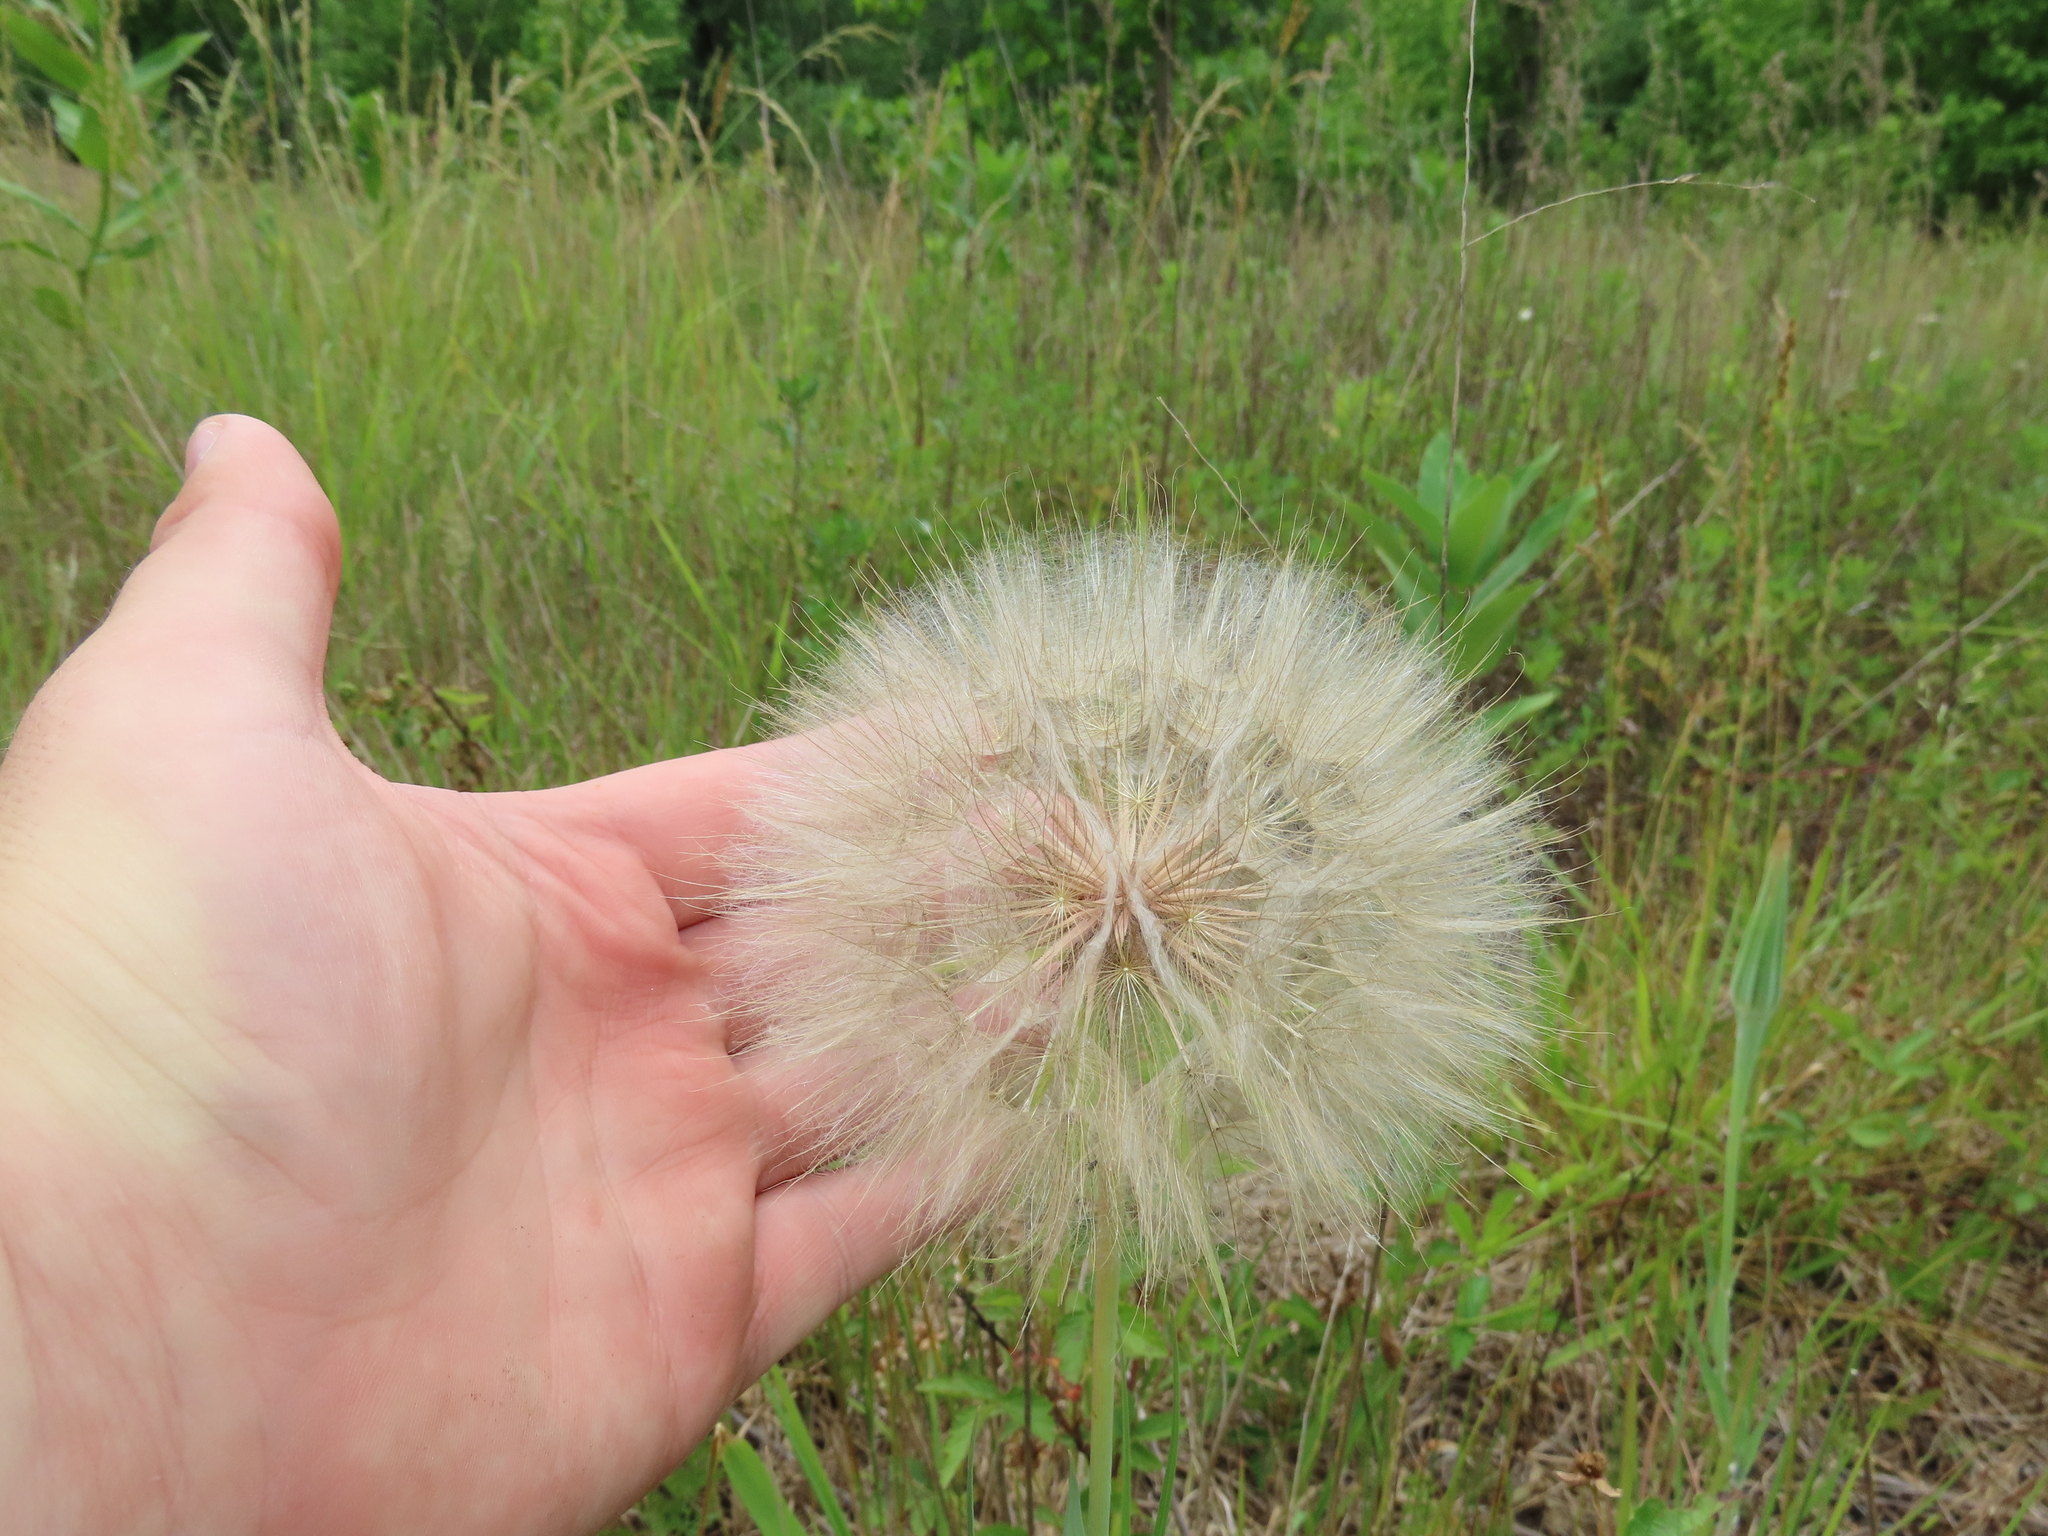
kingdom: Plantae
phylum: Tracheophyta
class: Magnoliopsida
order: Asterales
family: Asteraceae
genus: Tragopogon
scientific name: Tragopogon dubius
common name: Yellow salsify
